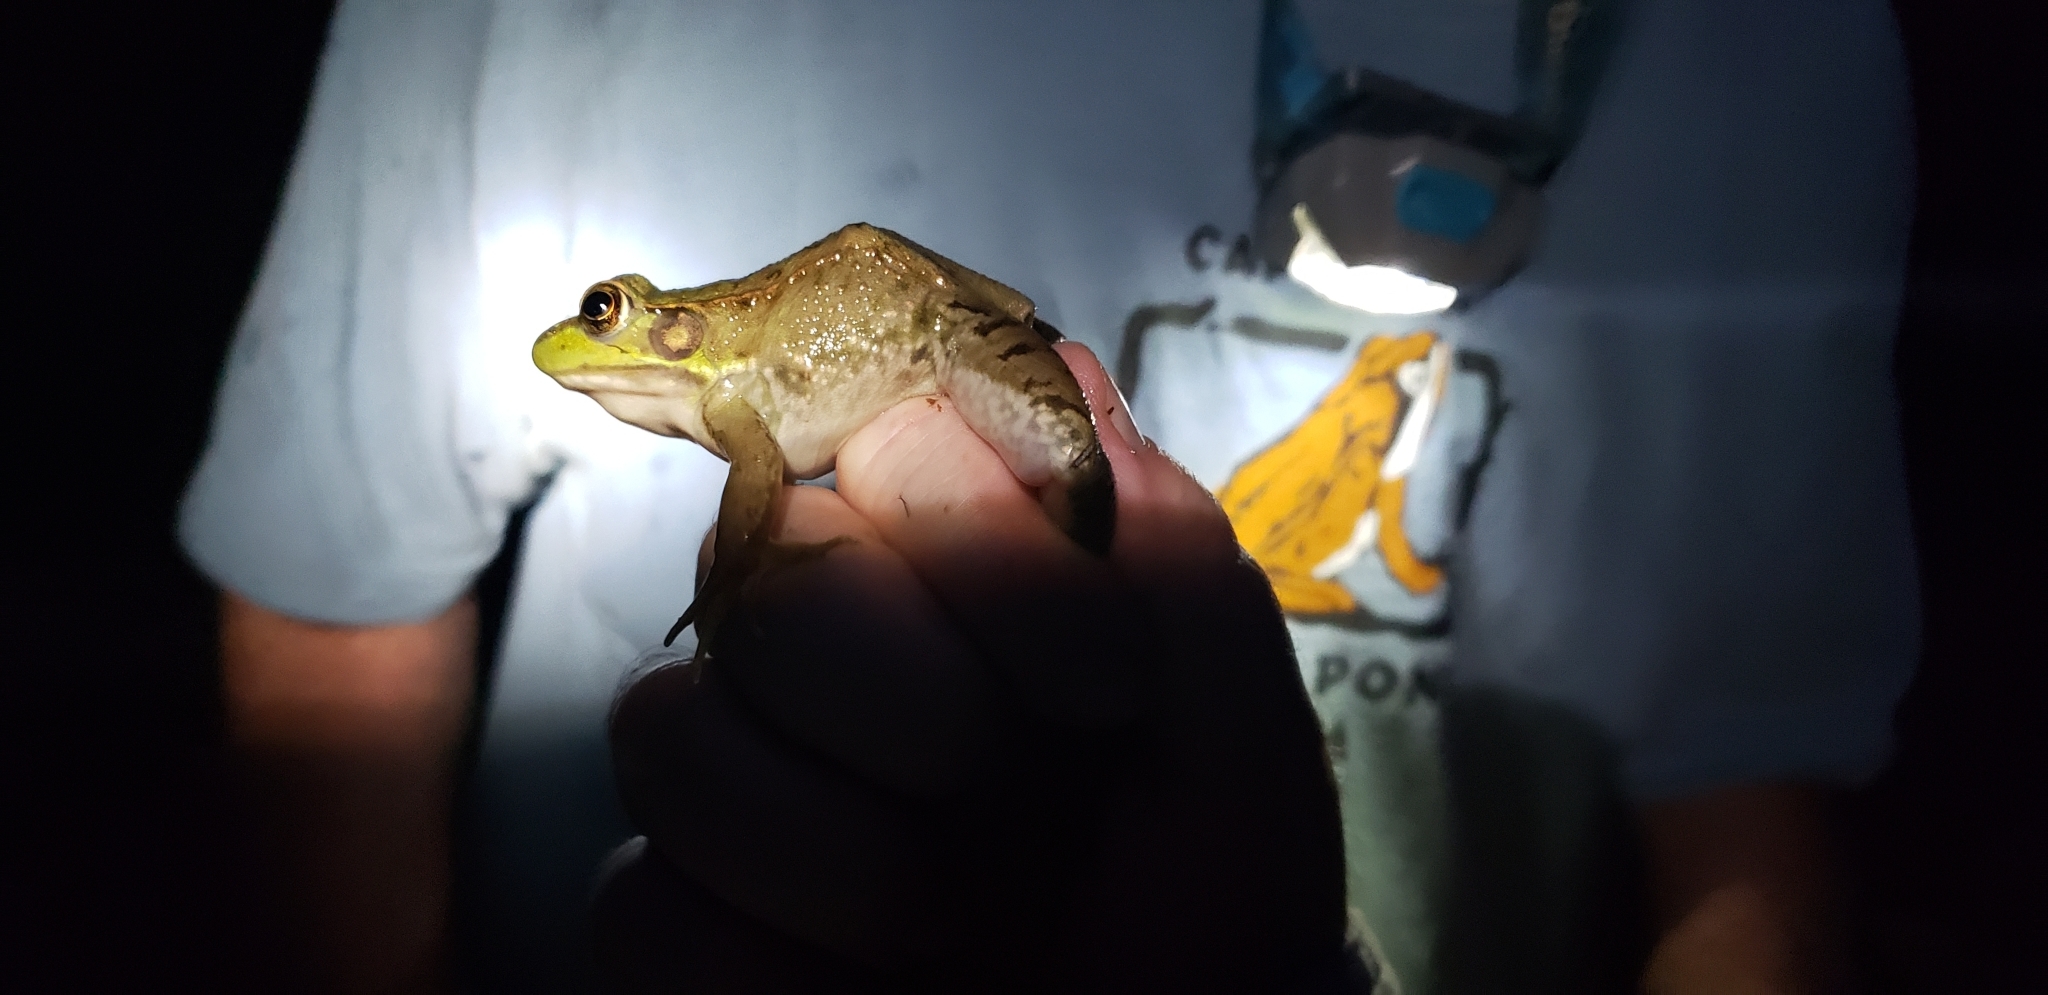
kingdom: Animalia
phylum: Chordata
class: Amphibia
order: Anura
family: Ranidae
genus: Lithobates
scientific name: Lithobates clamitans
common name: Green frog
